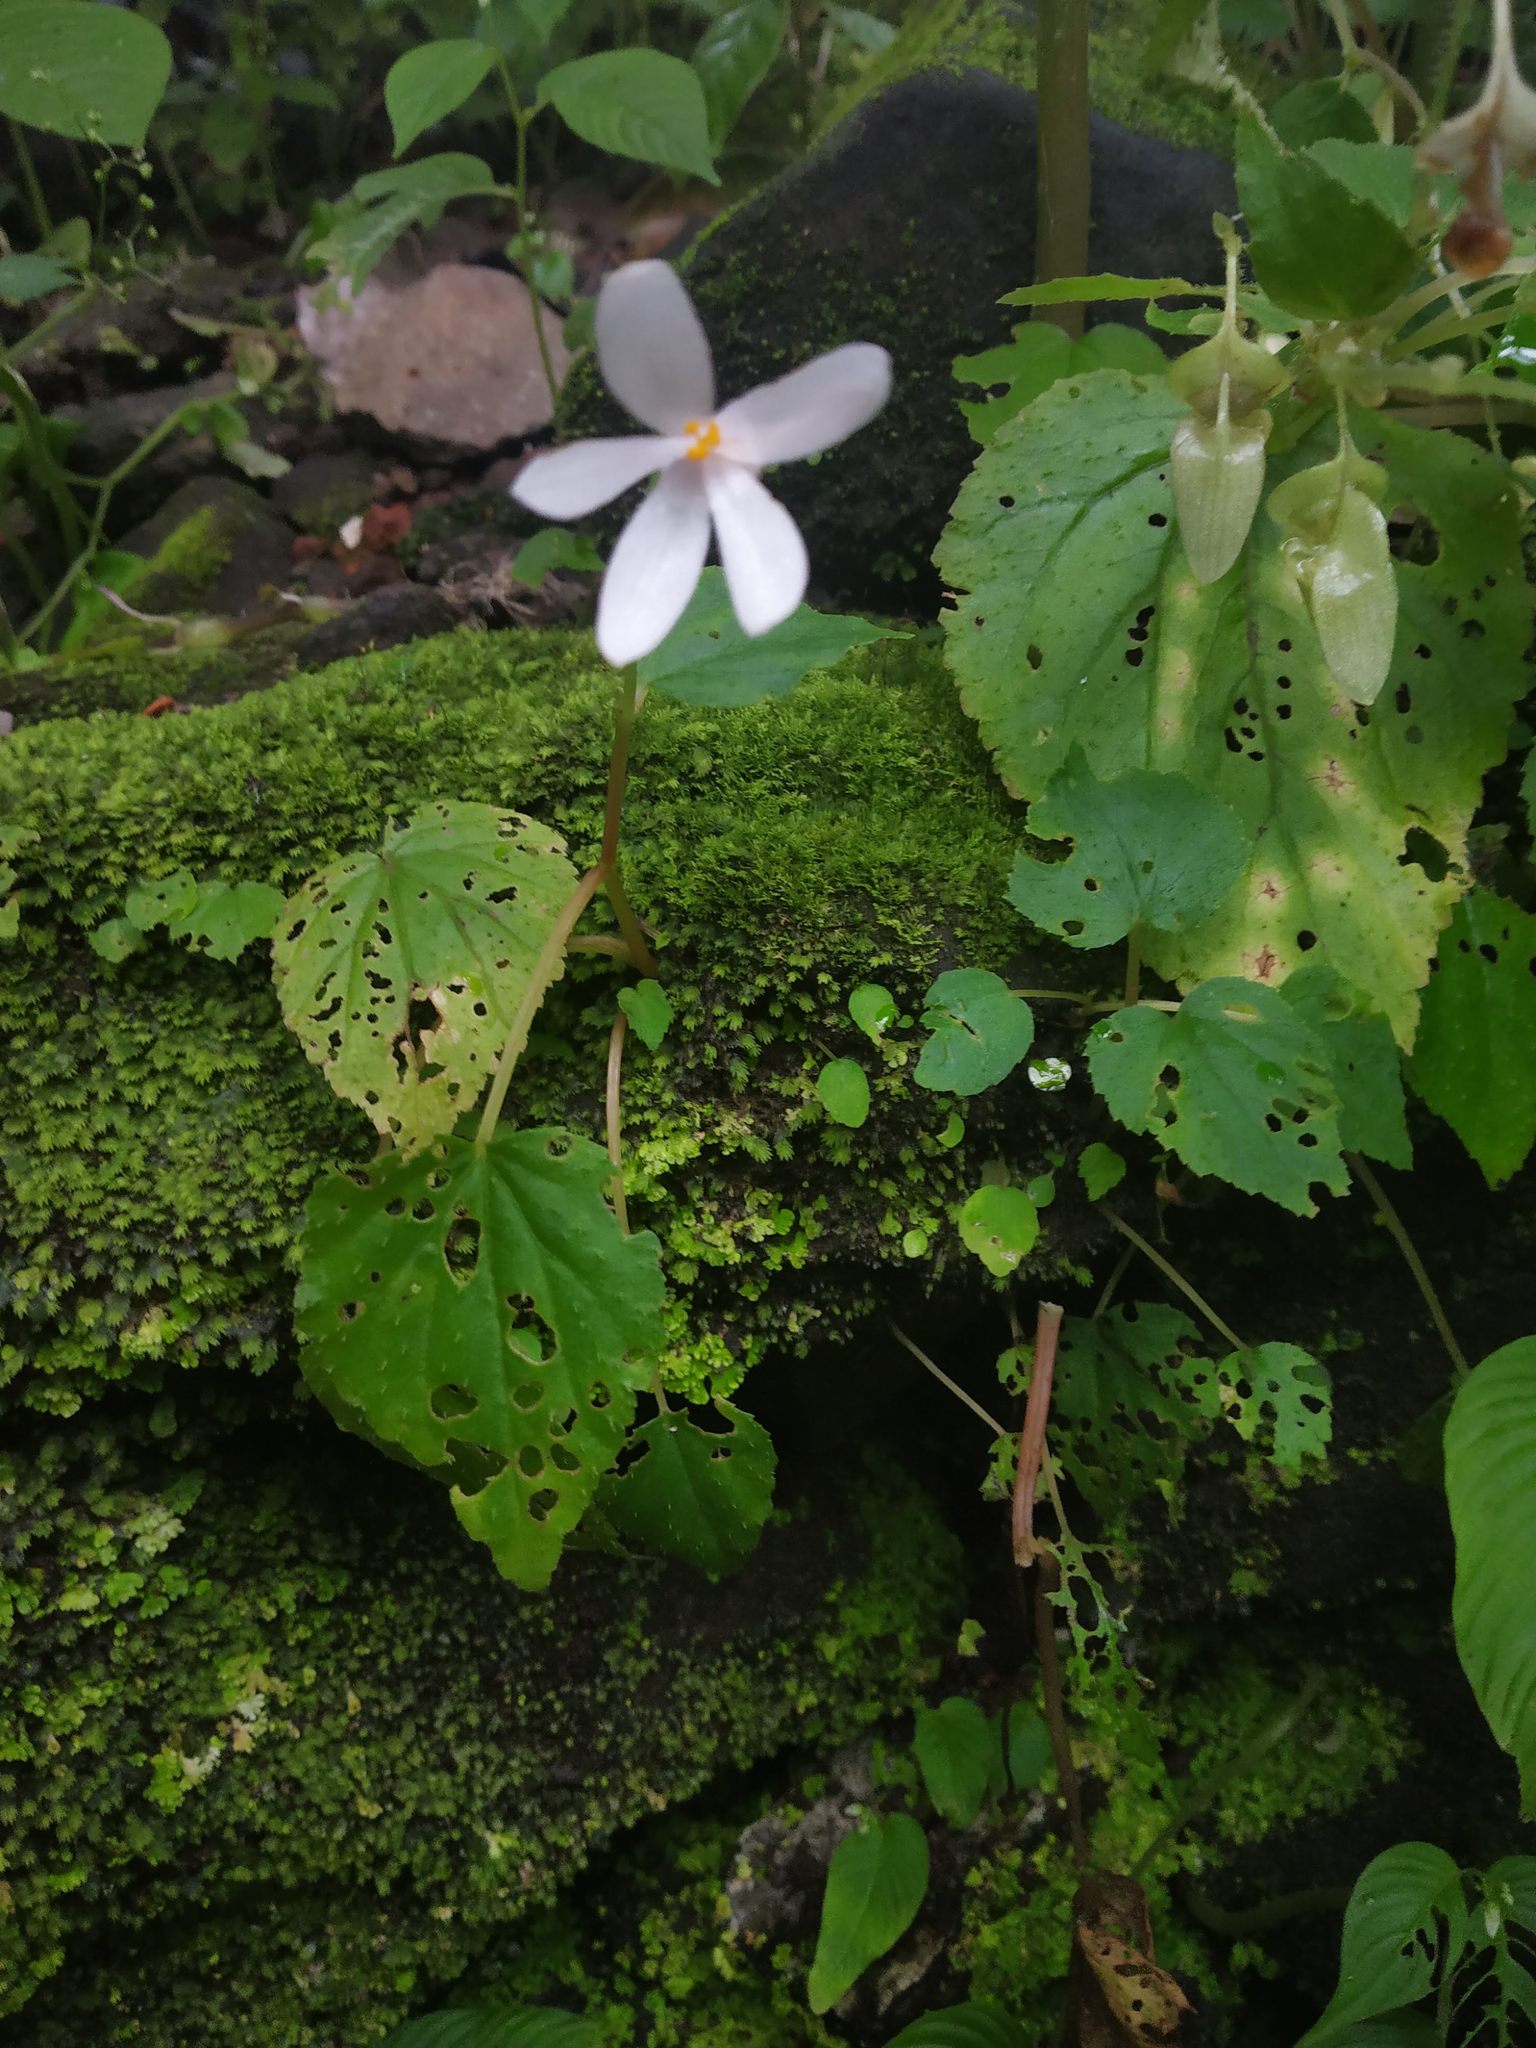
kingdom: Plantae
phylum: Tracheophyta
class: Magnoliopsida
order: Cucurbitales
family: Begoniaceae
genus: Begonia
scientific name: Begonia crenata
